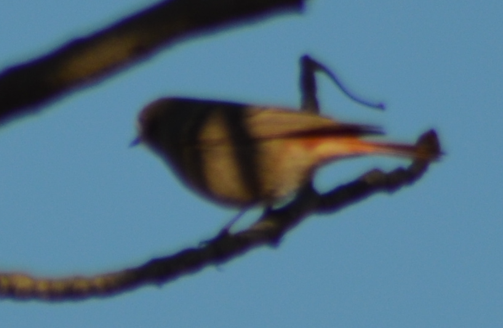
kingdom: Animalia
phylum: Chordata
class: Aves
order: Passeriformes
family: Muscicapidae
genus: Phoenicurus
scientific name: Phoenicurus ochruros
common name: Black redstart
